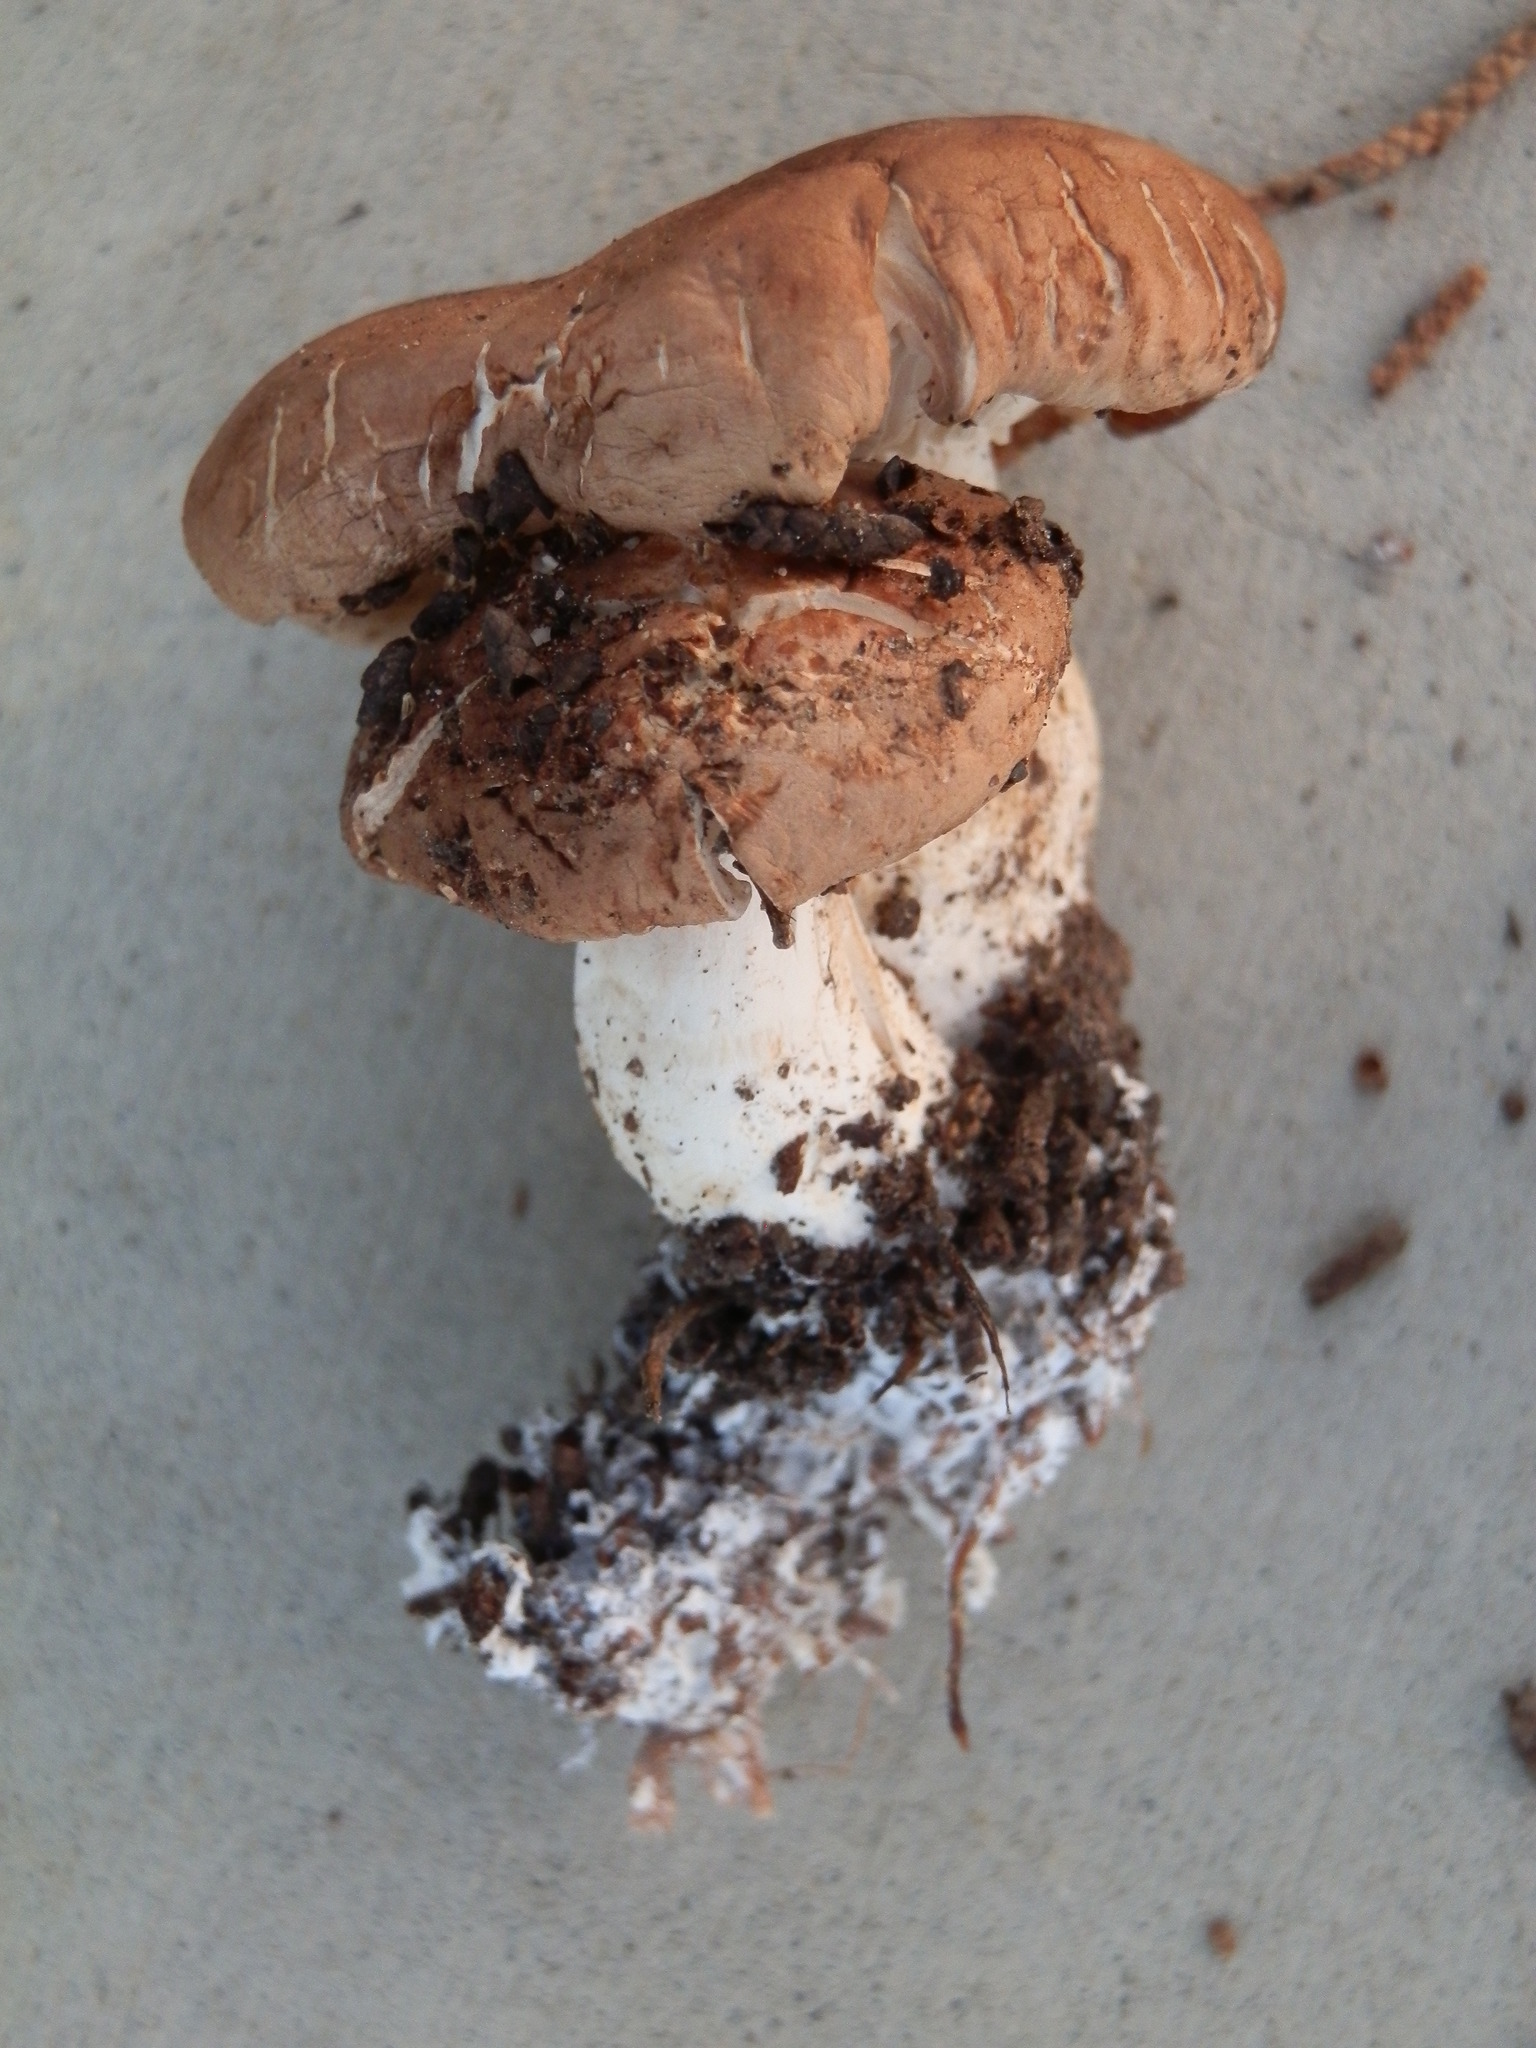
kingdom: Fungi
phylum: Basidiomycota
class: Agaricomycetes
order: Agaricales
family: Tricholomataceae
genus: Leucopaxillus
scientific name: Leucopaxillus gentianeus
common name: Bitter funnel
